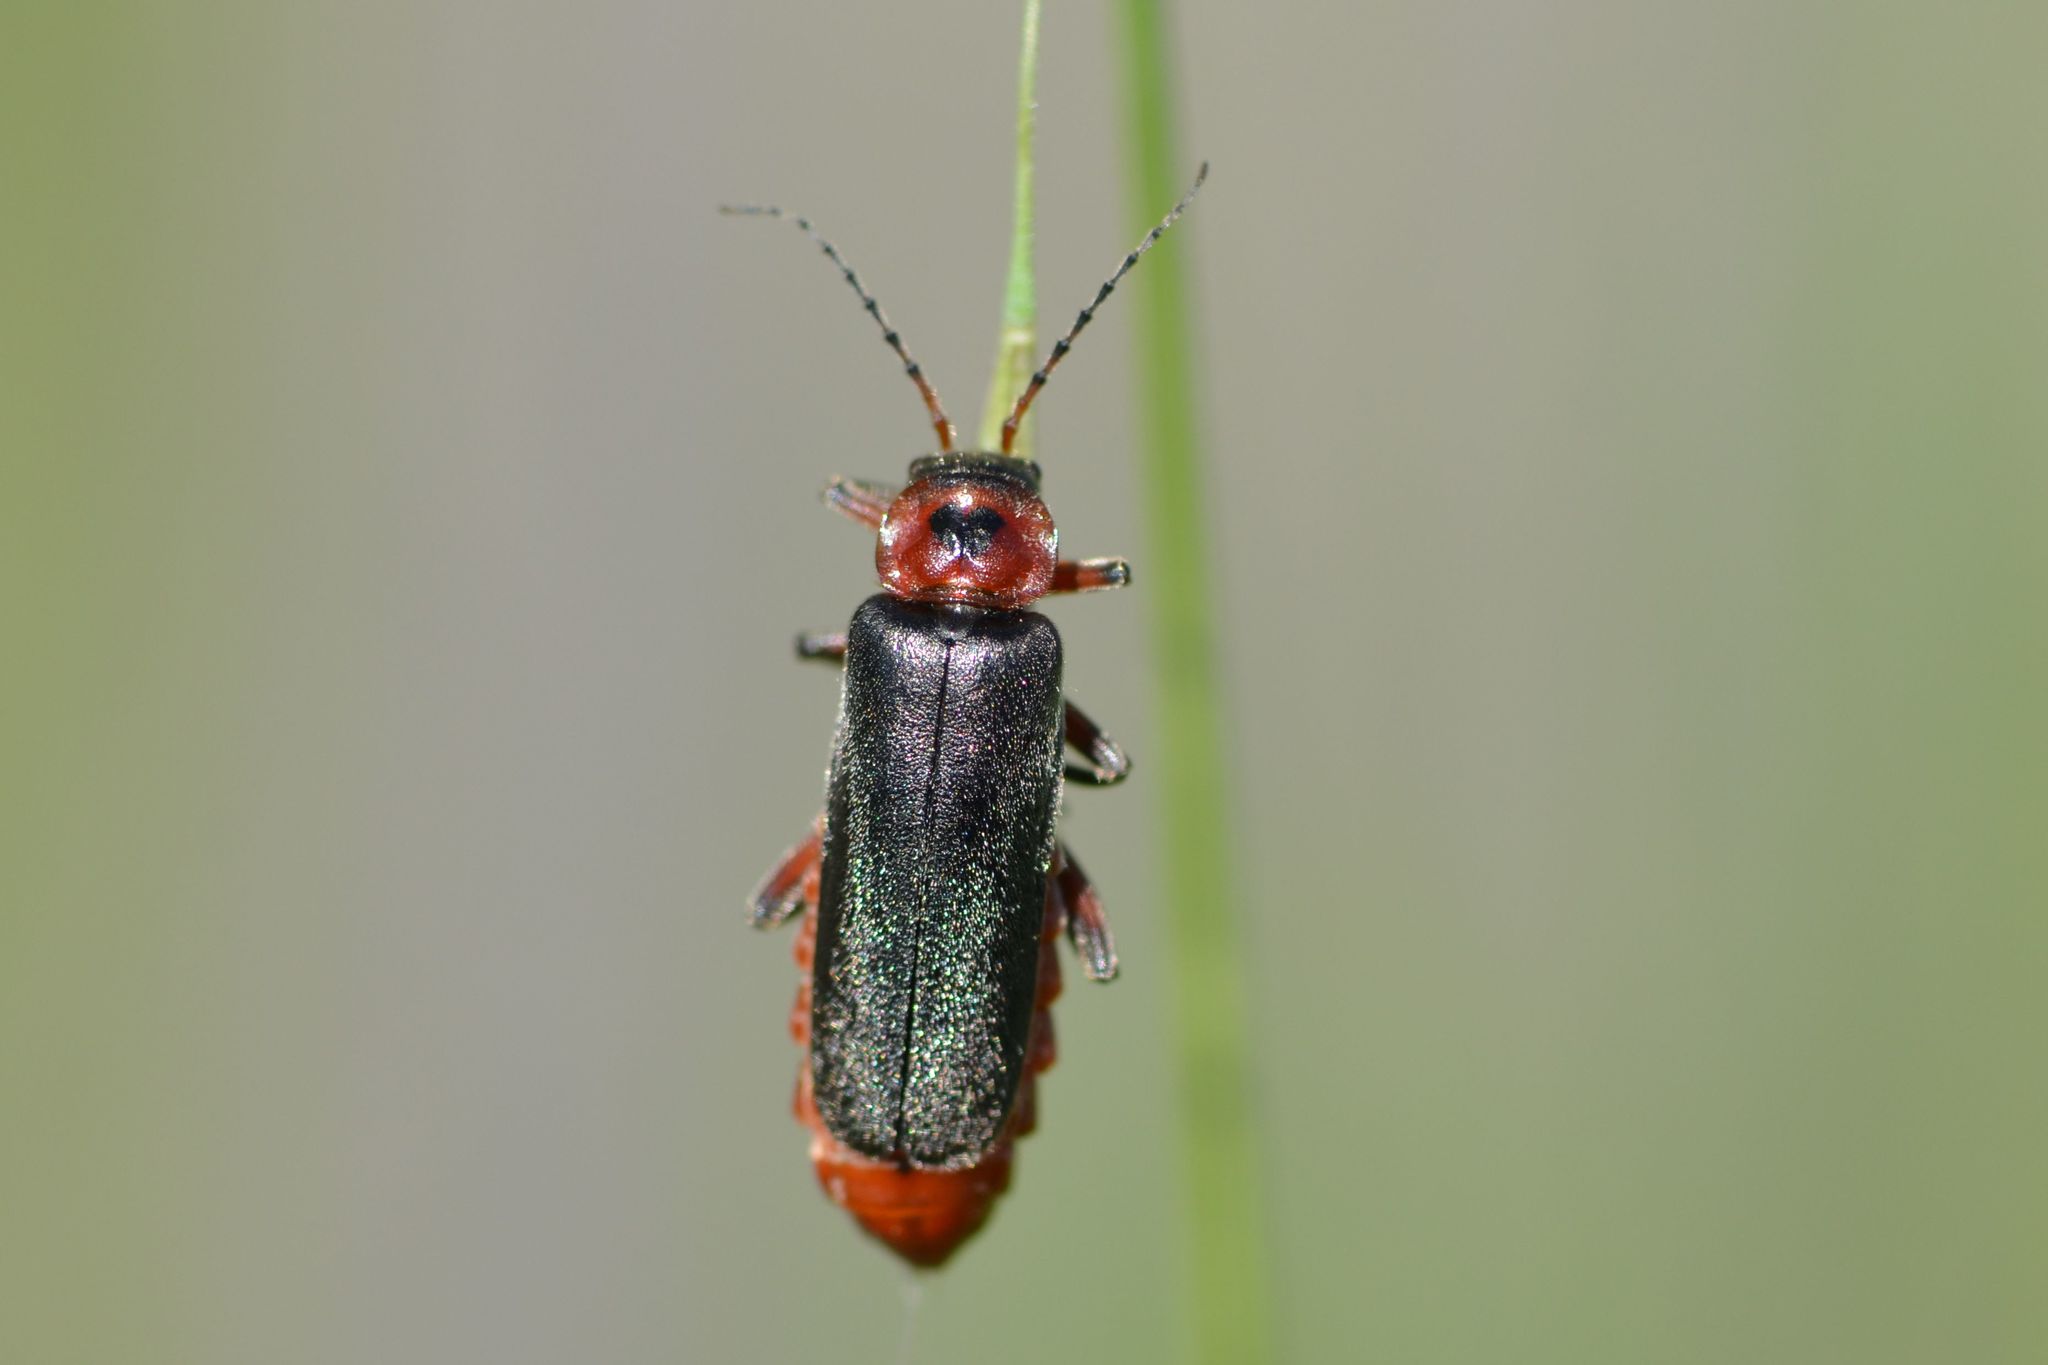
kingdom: Animalia
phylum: Arthropoda
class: Insecta
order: Coleoptera
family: Cantharidae
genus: Cantharis
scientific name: Cantharis rustica
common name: Soldier beetle
